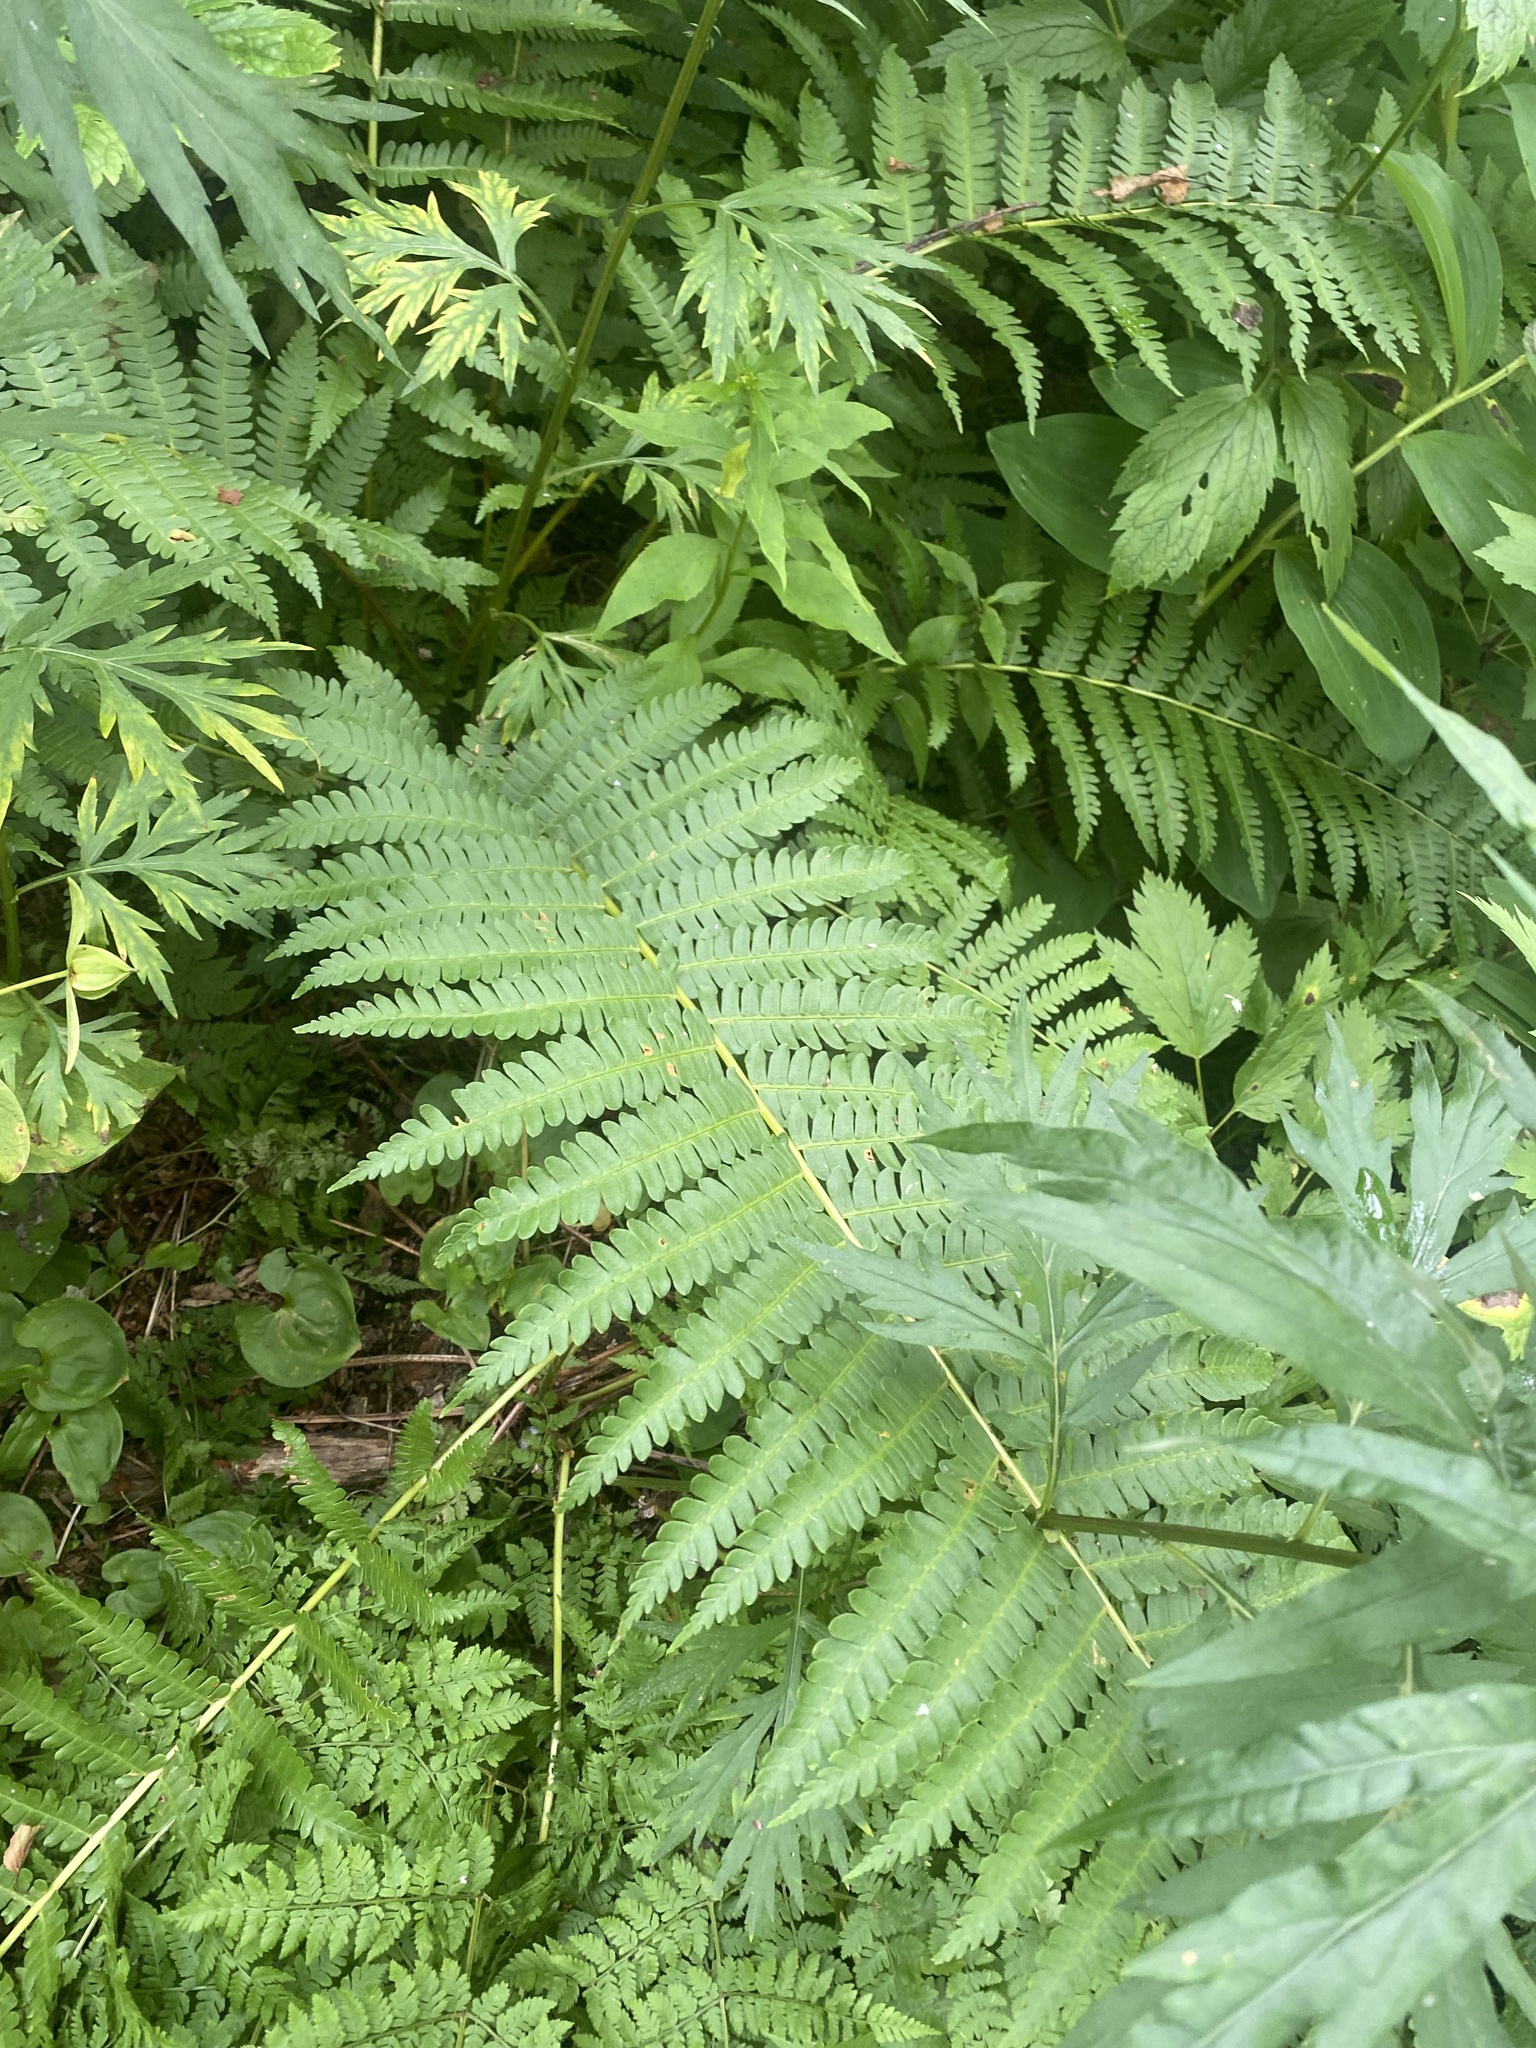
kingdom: Plantae
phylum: Tracheophyta
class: Polypodiopsida
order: Osmundales
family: Osmundaceae
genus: Osmundastrum
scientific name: Osmundastrum cinnamomeum
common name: Cinnamon fern
